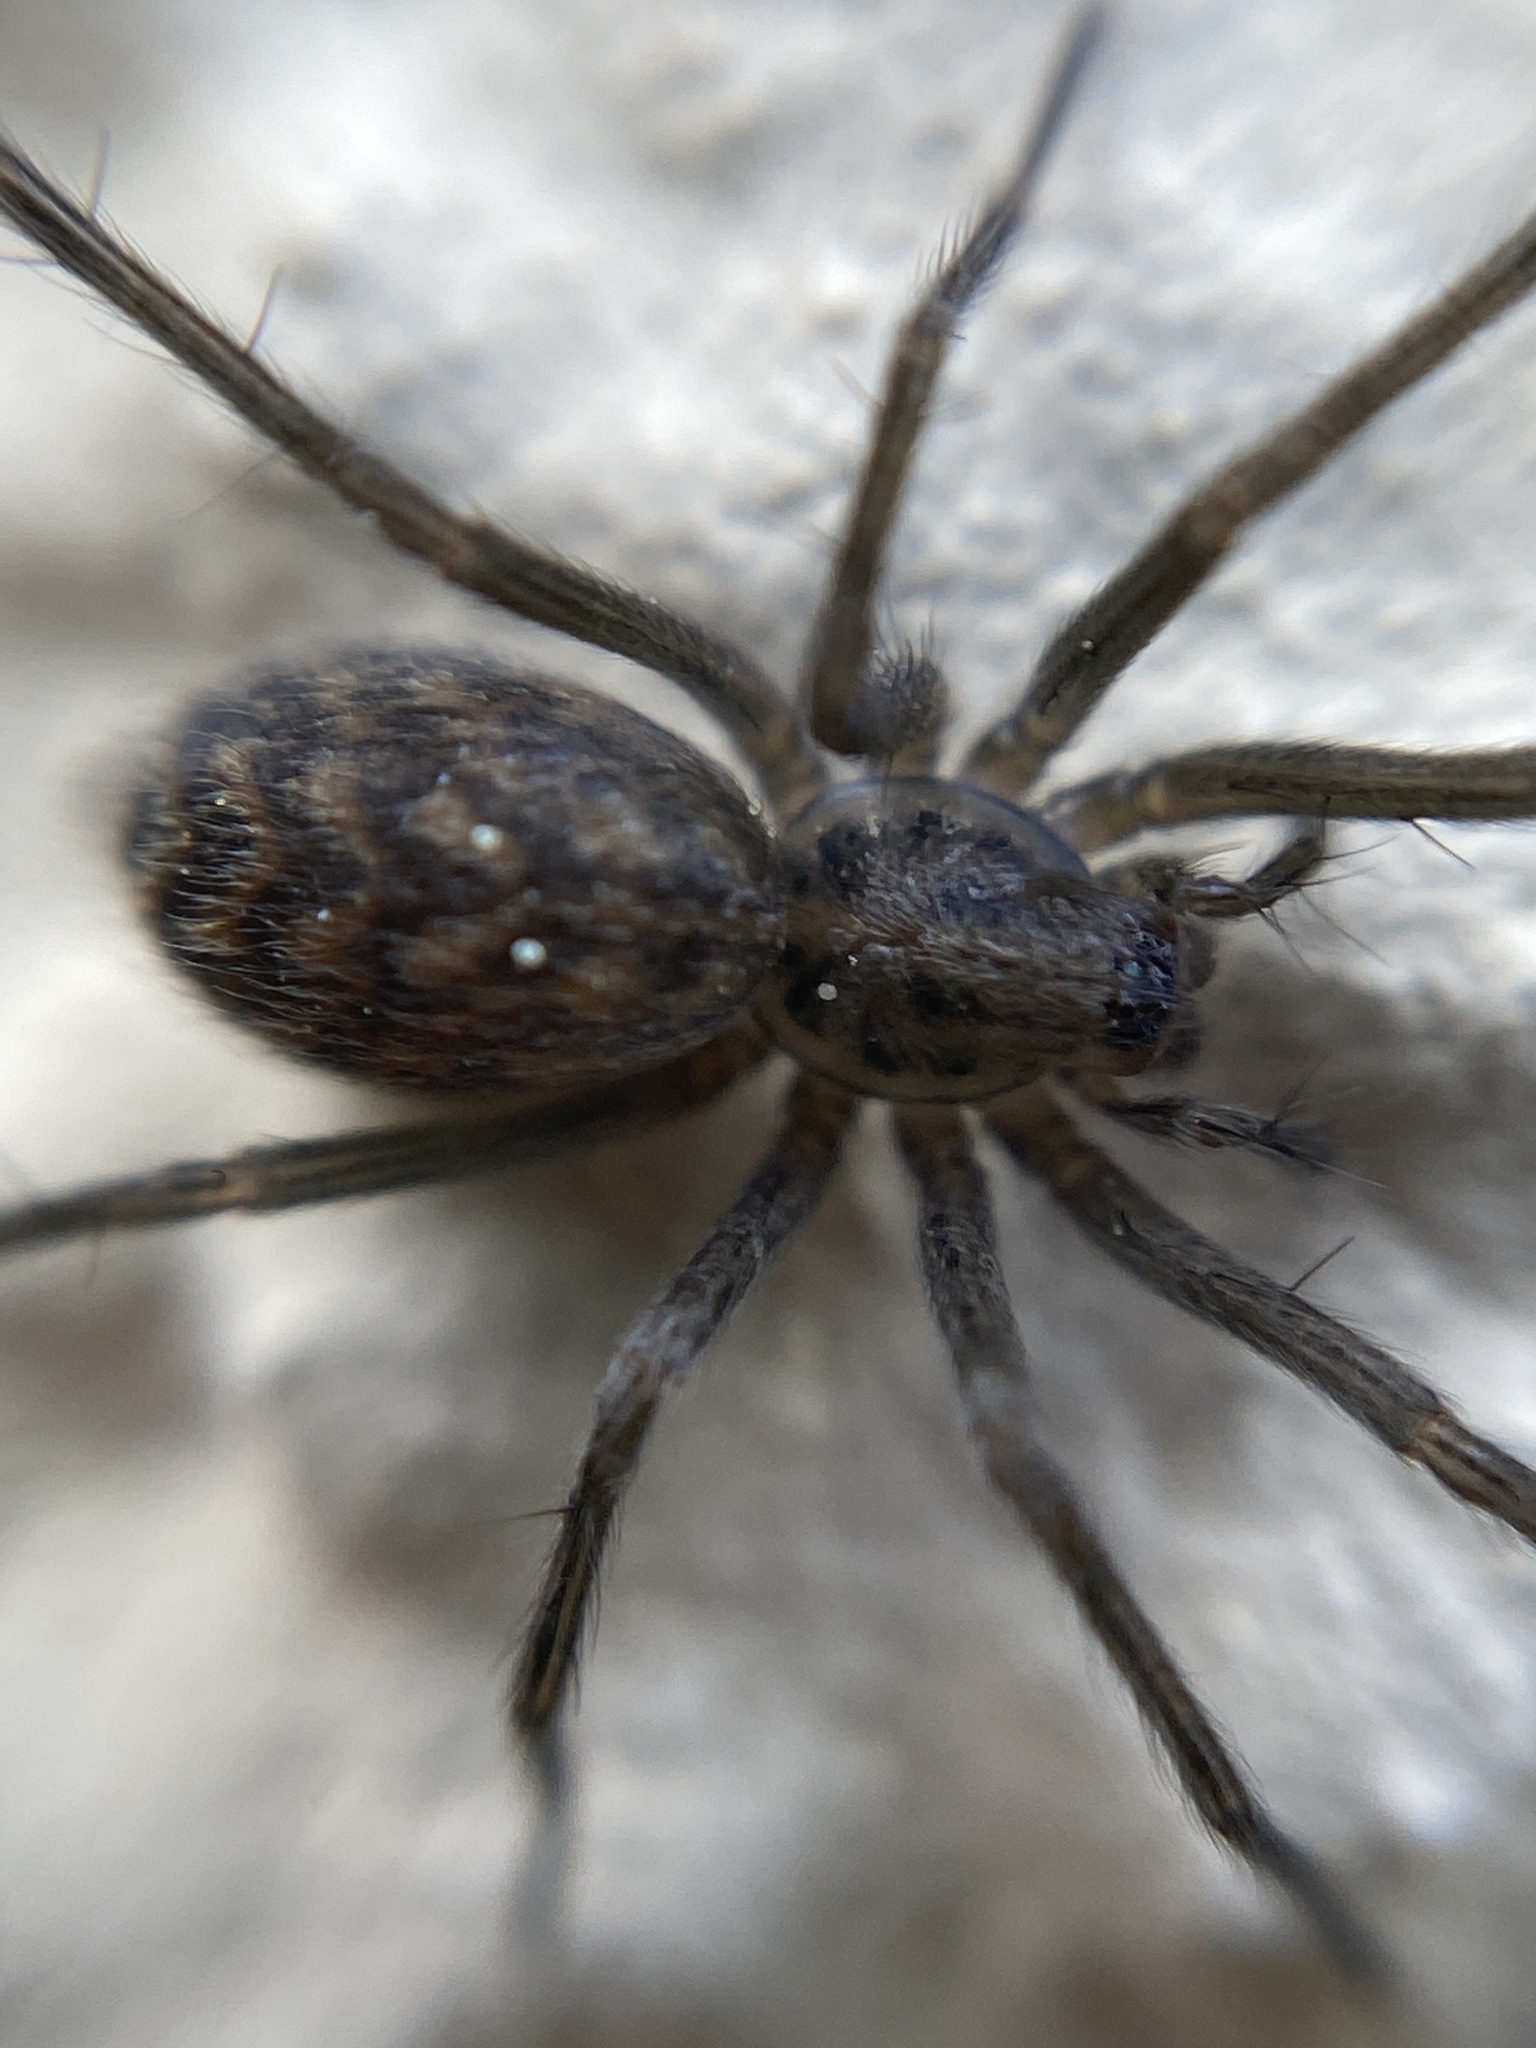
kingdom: Animalia
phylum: Arthropoda
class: Arachnida
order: Araneae
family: Agelenidae
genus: Eratigena
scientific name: Eratigena atrica
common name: Giant house spider
